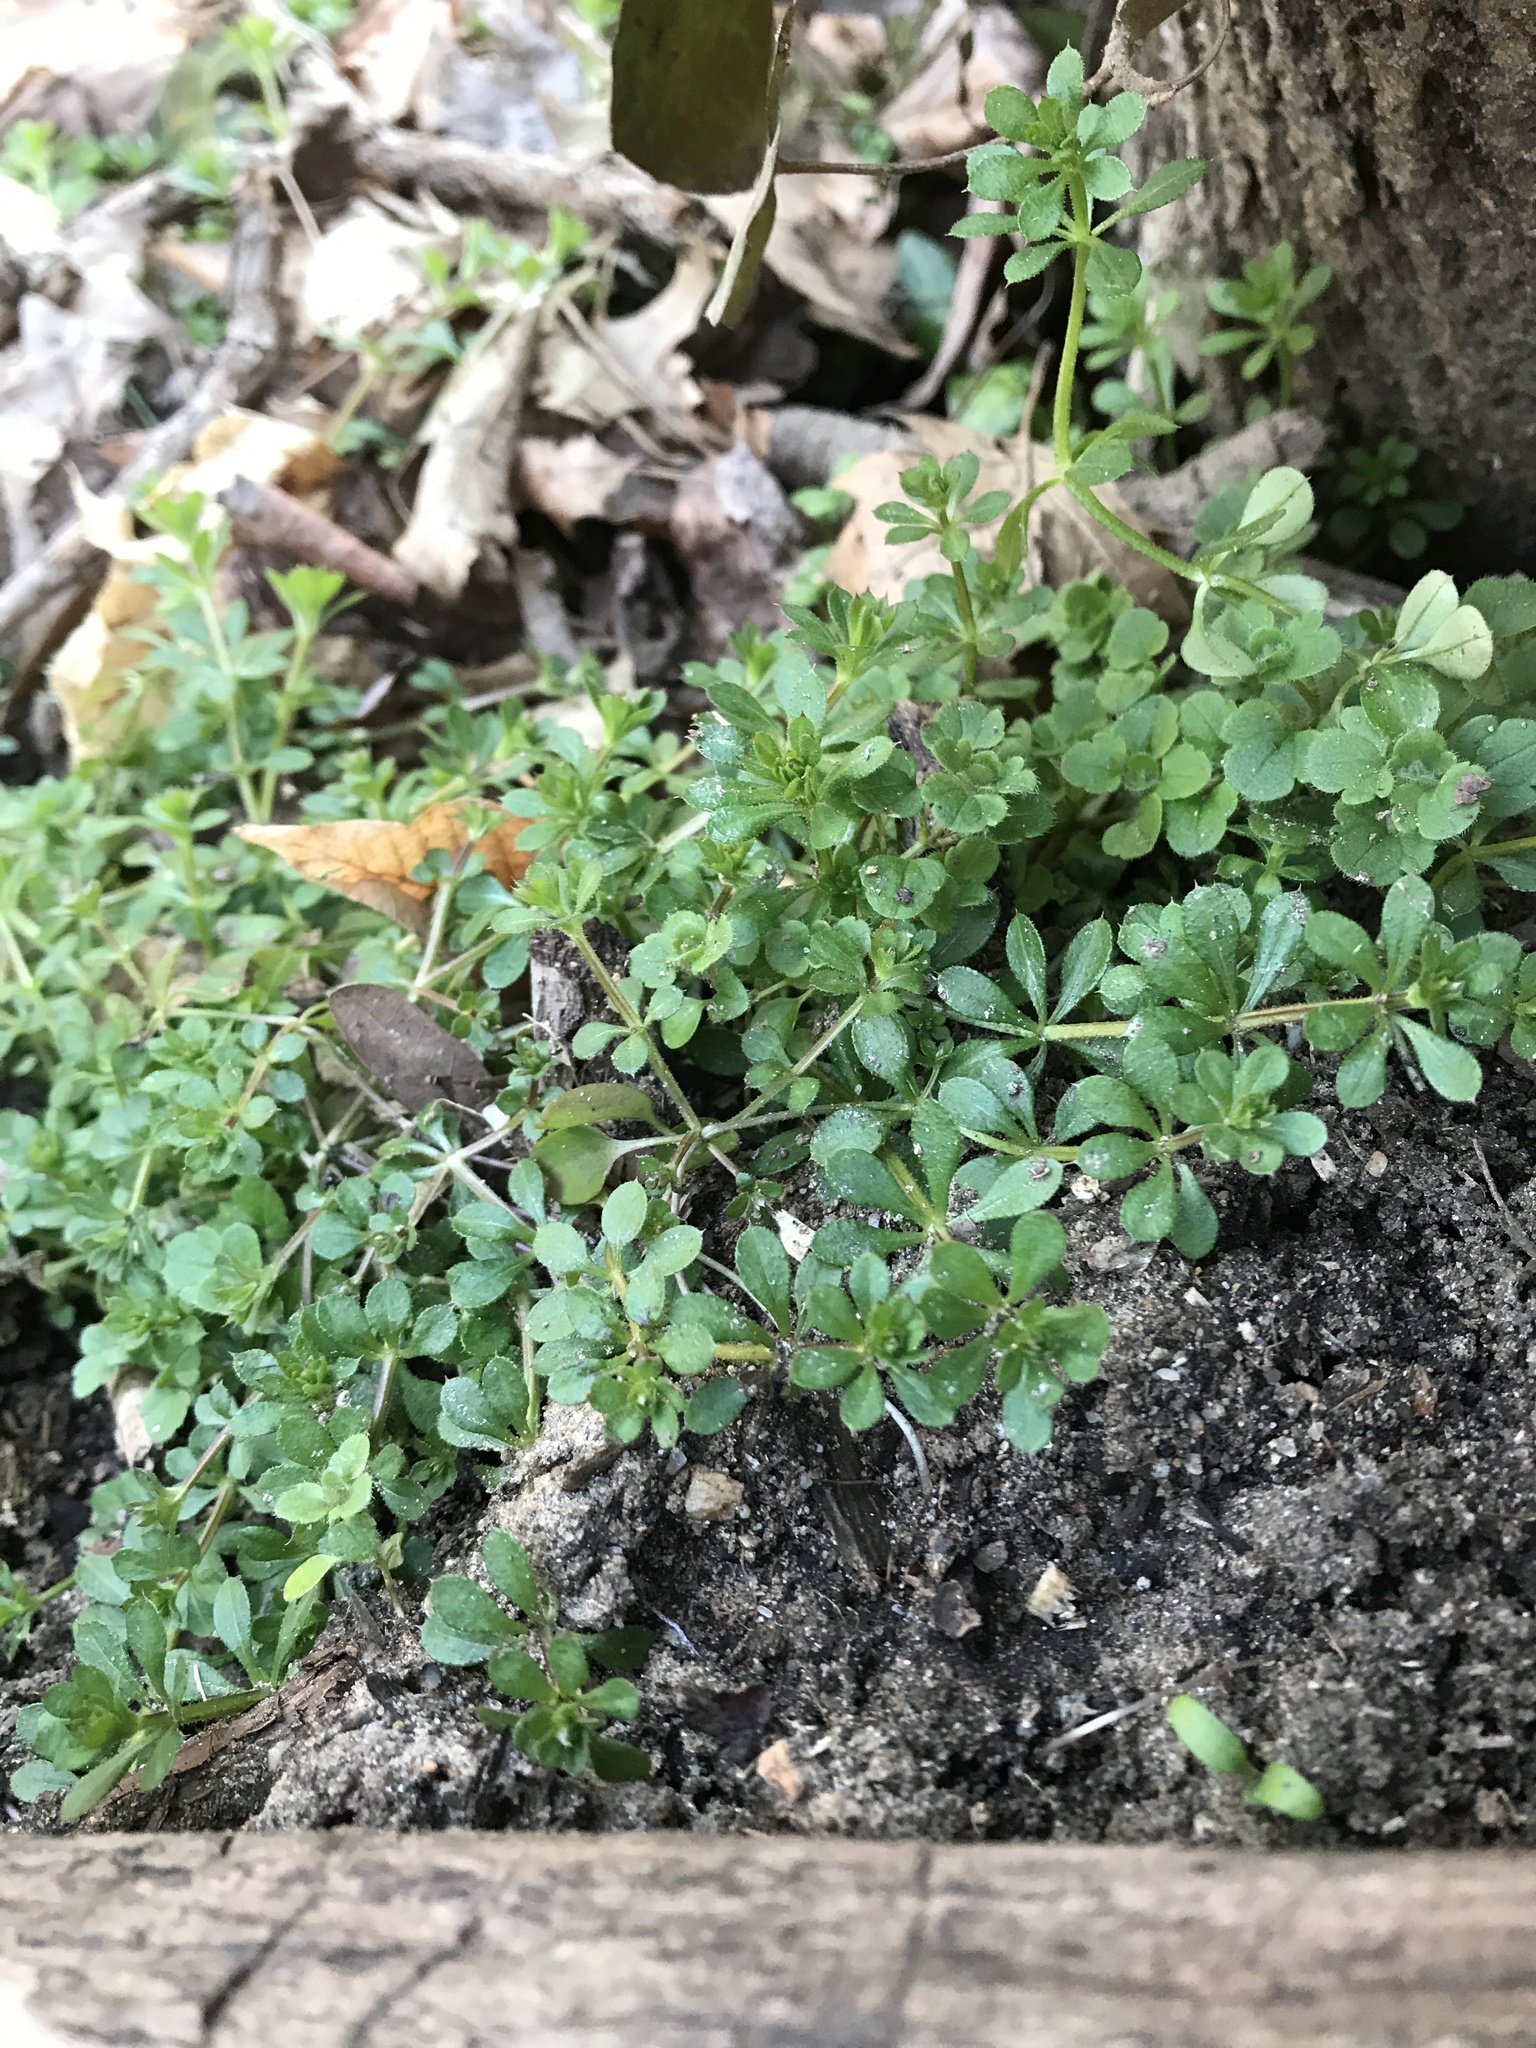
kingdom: Plantae
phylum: Tracheophyta
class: Magnoliopsida
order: Gentianales
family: Rubiaceae
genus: Galium
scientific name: Galium aparine
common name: Cleavers
